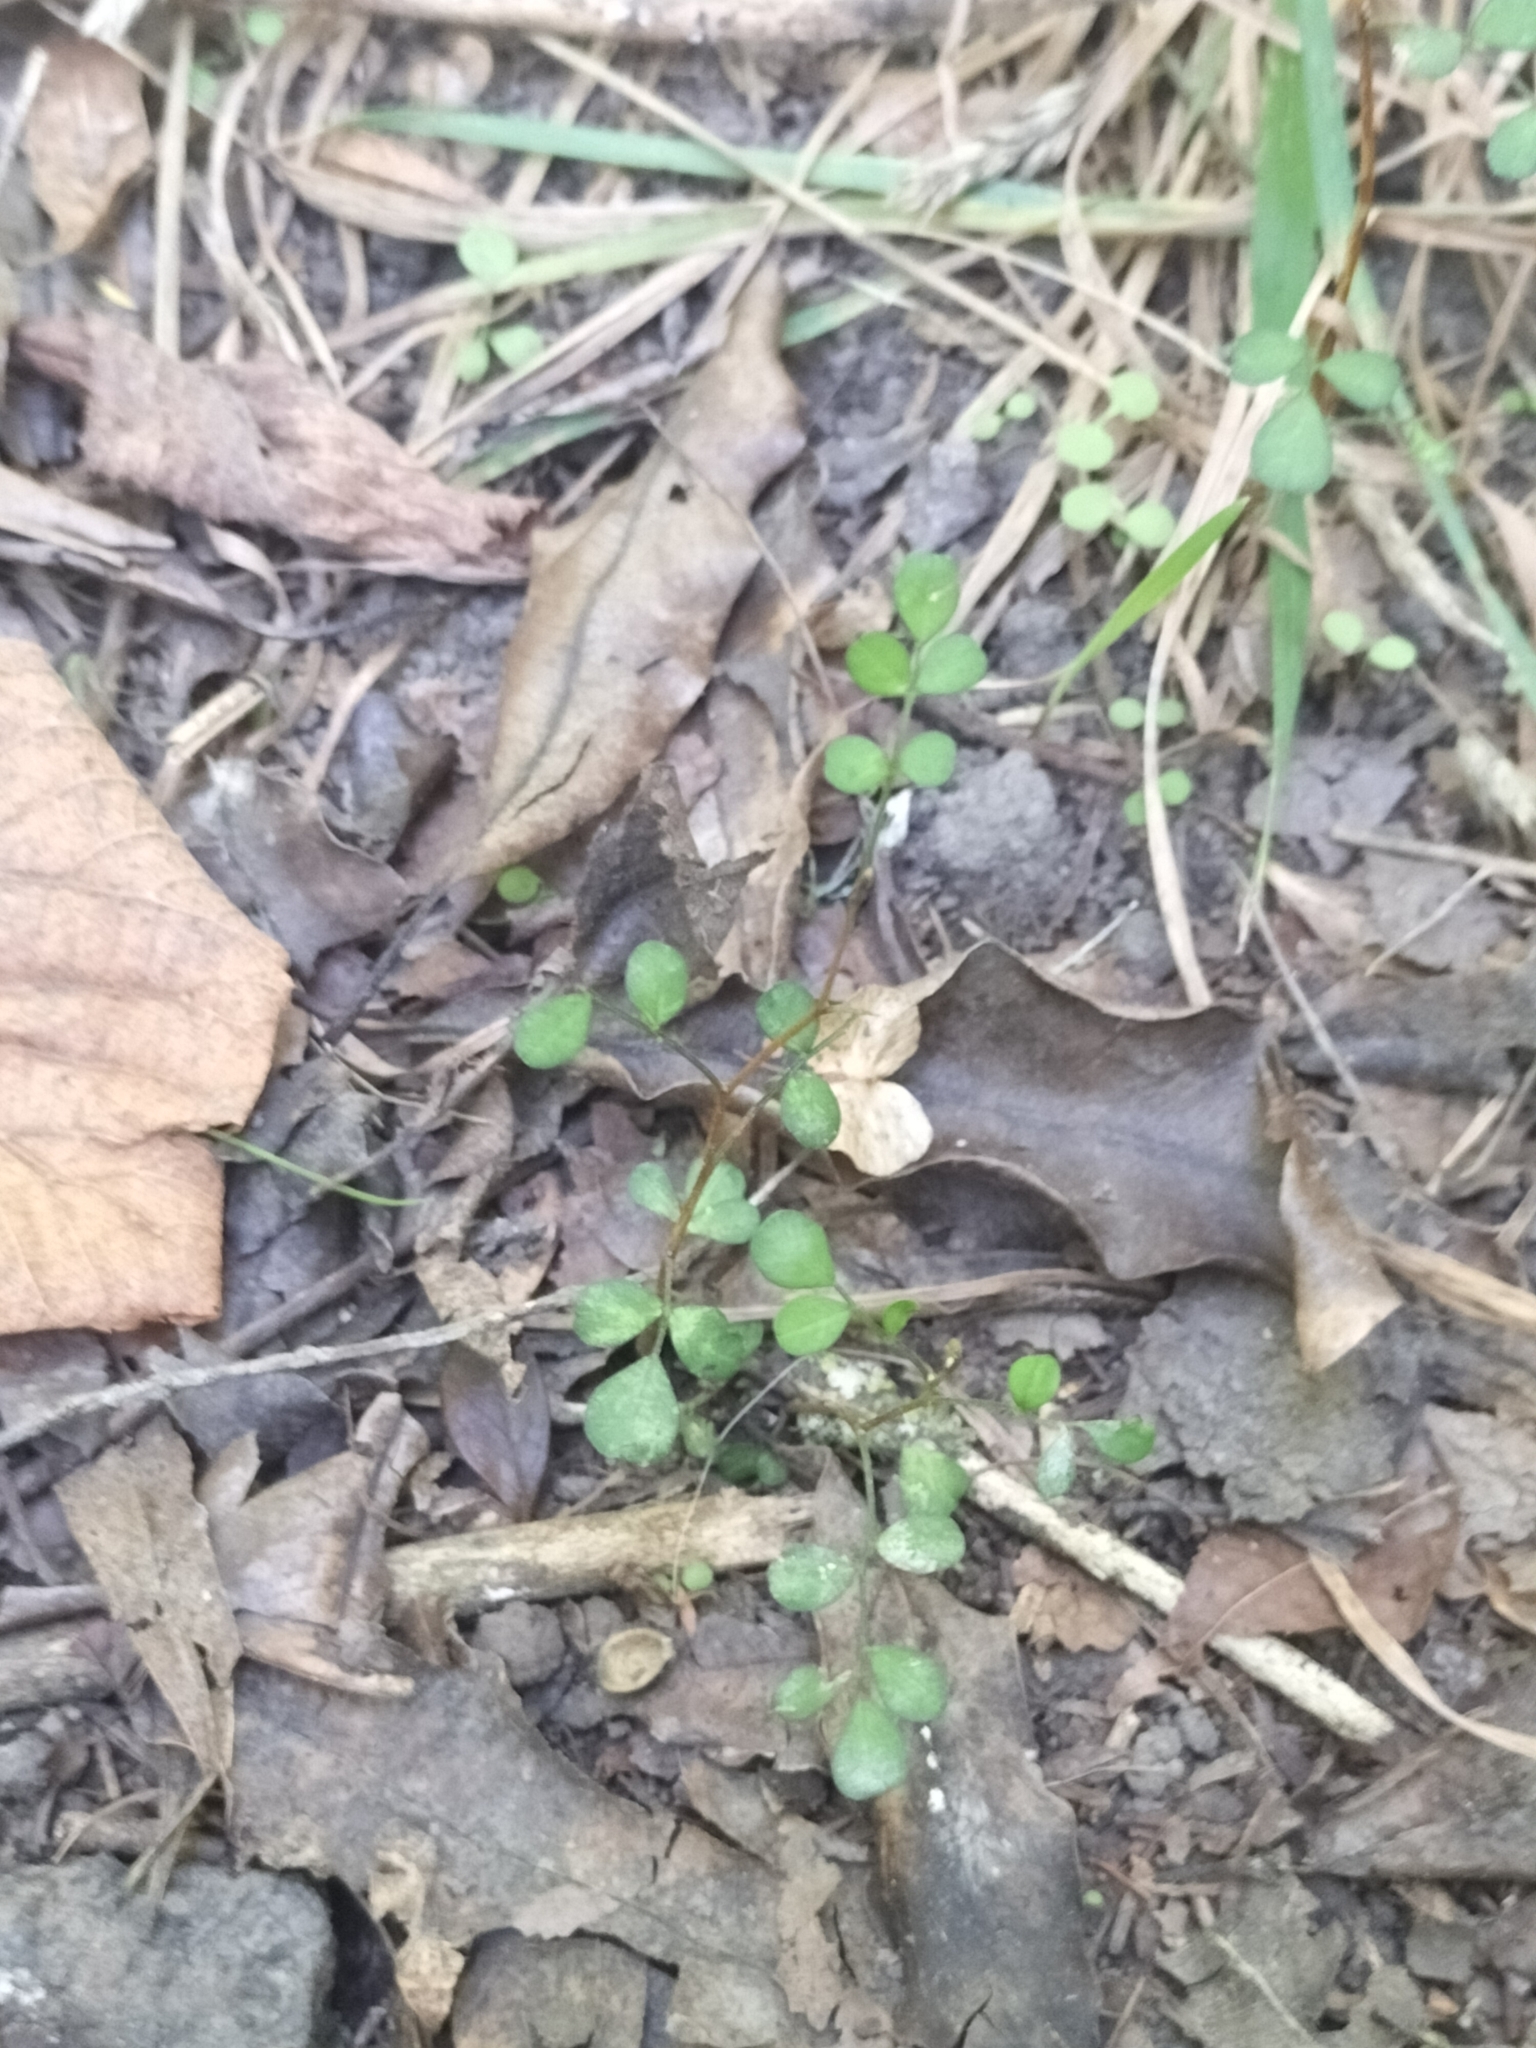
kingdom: Plantae
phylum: Tracheophyta
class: Magnoliopsida
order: Fabales
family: Fabaceae
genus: Sophora
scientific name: Sophora microphylla
